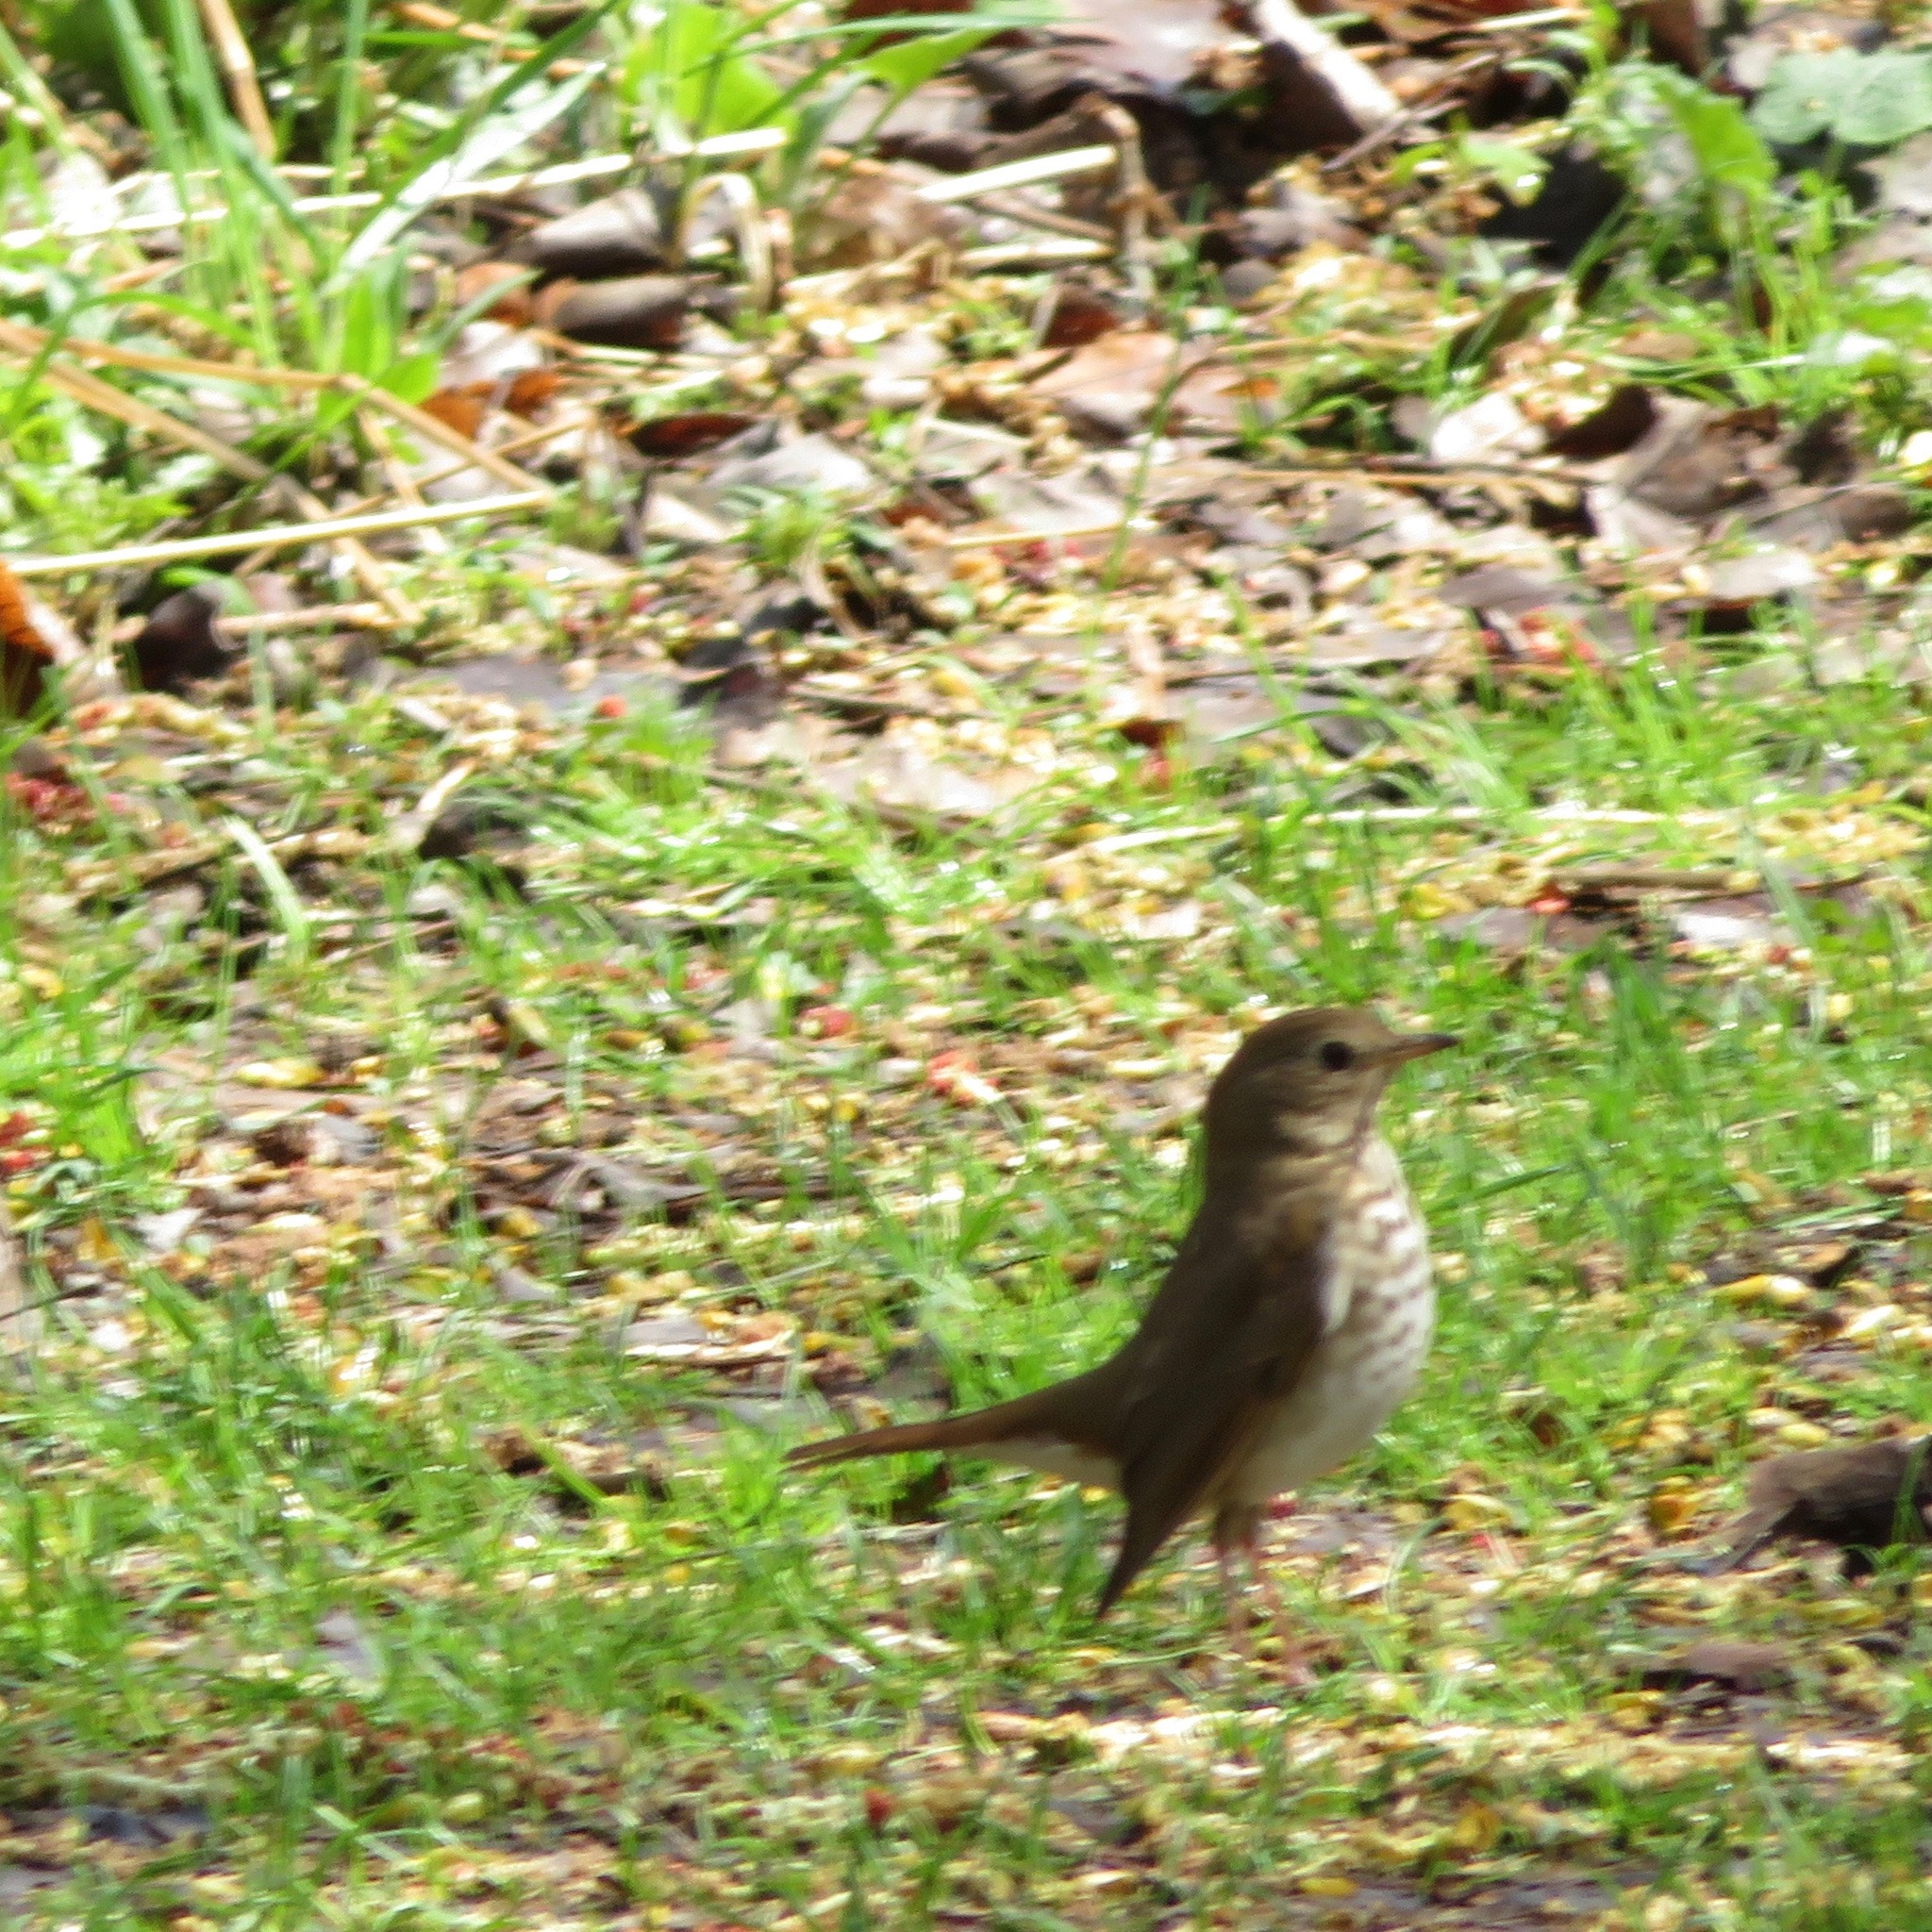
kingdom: Animalia
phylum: Chordata
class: Aves
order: Passeriformes
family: Turdidae
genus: Catharus
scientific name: Catharus guttatus
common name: Hermit thrush
